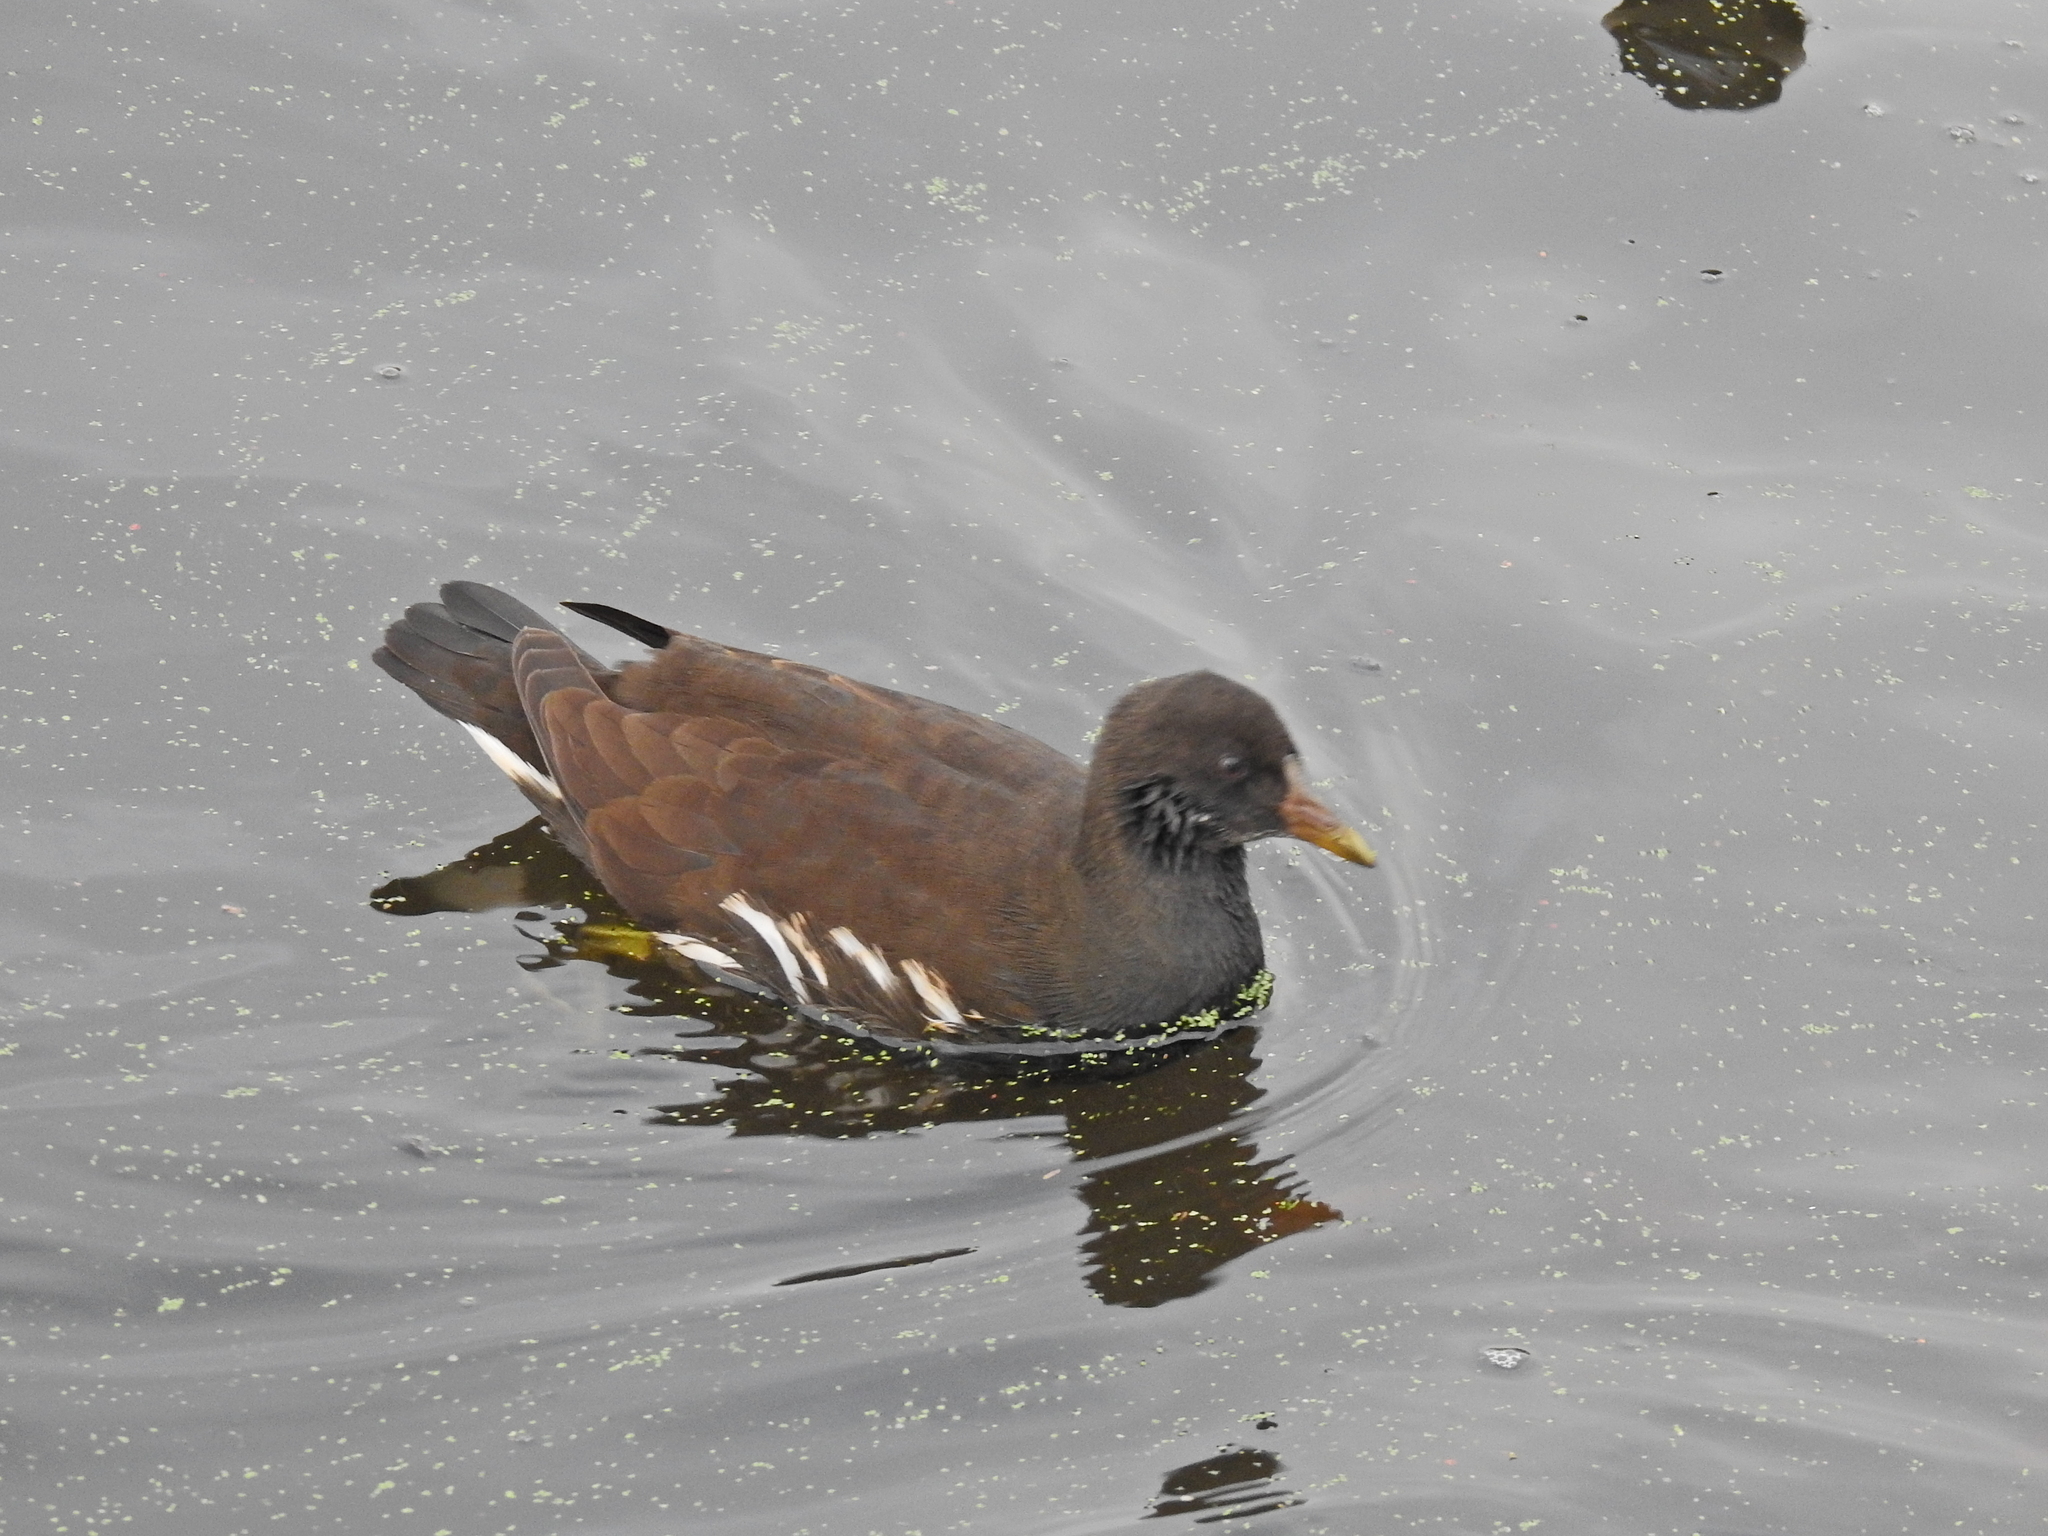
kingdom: Animalia
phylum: Chordata
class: Aves
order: Gruiformes
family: Rallidae
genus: Gallinula
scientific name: Gallinula chloropus
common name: Common moorhen
